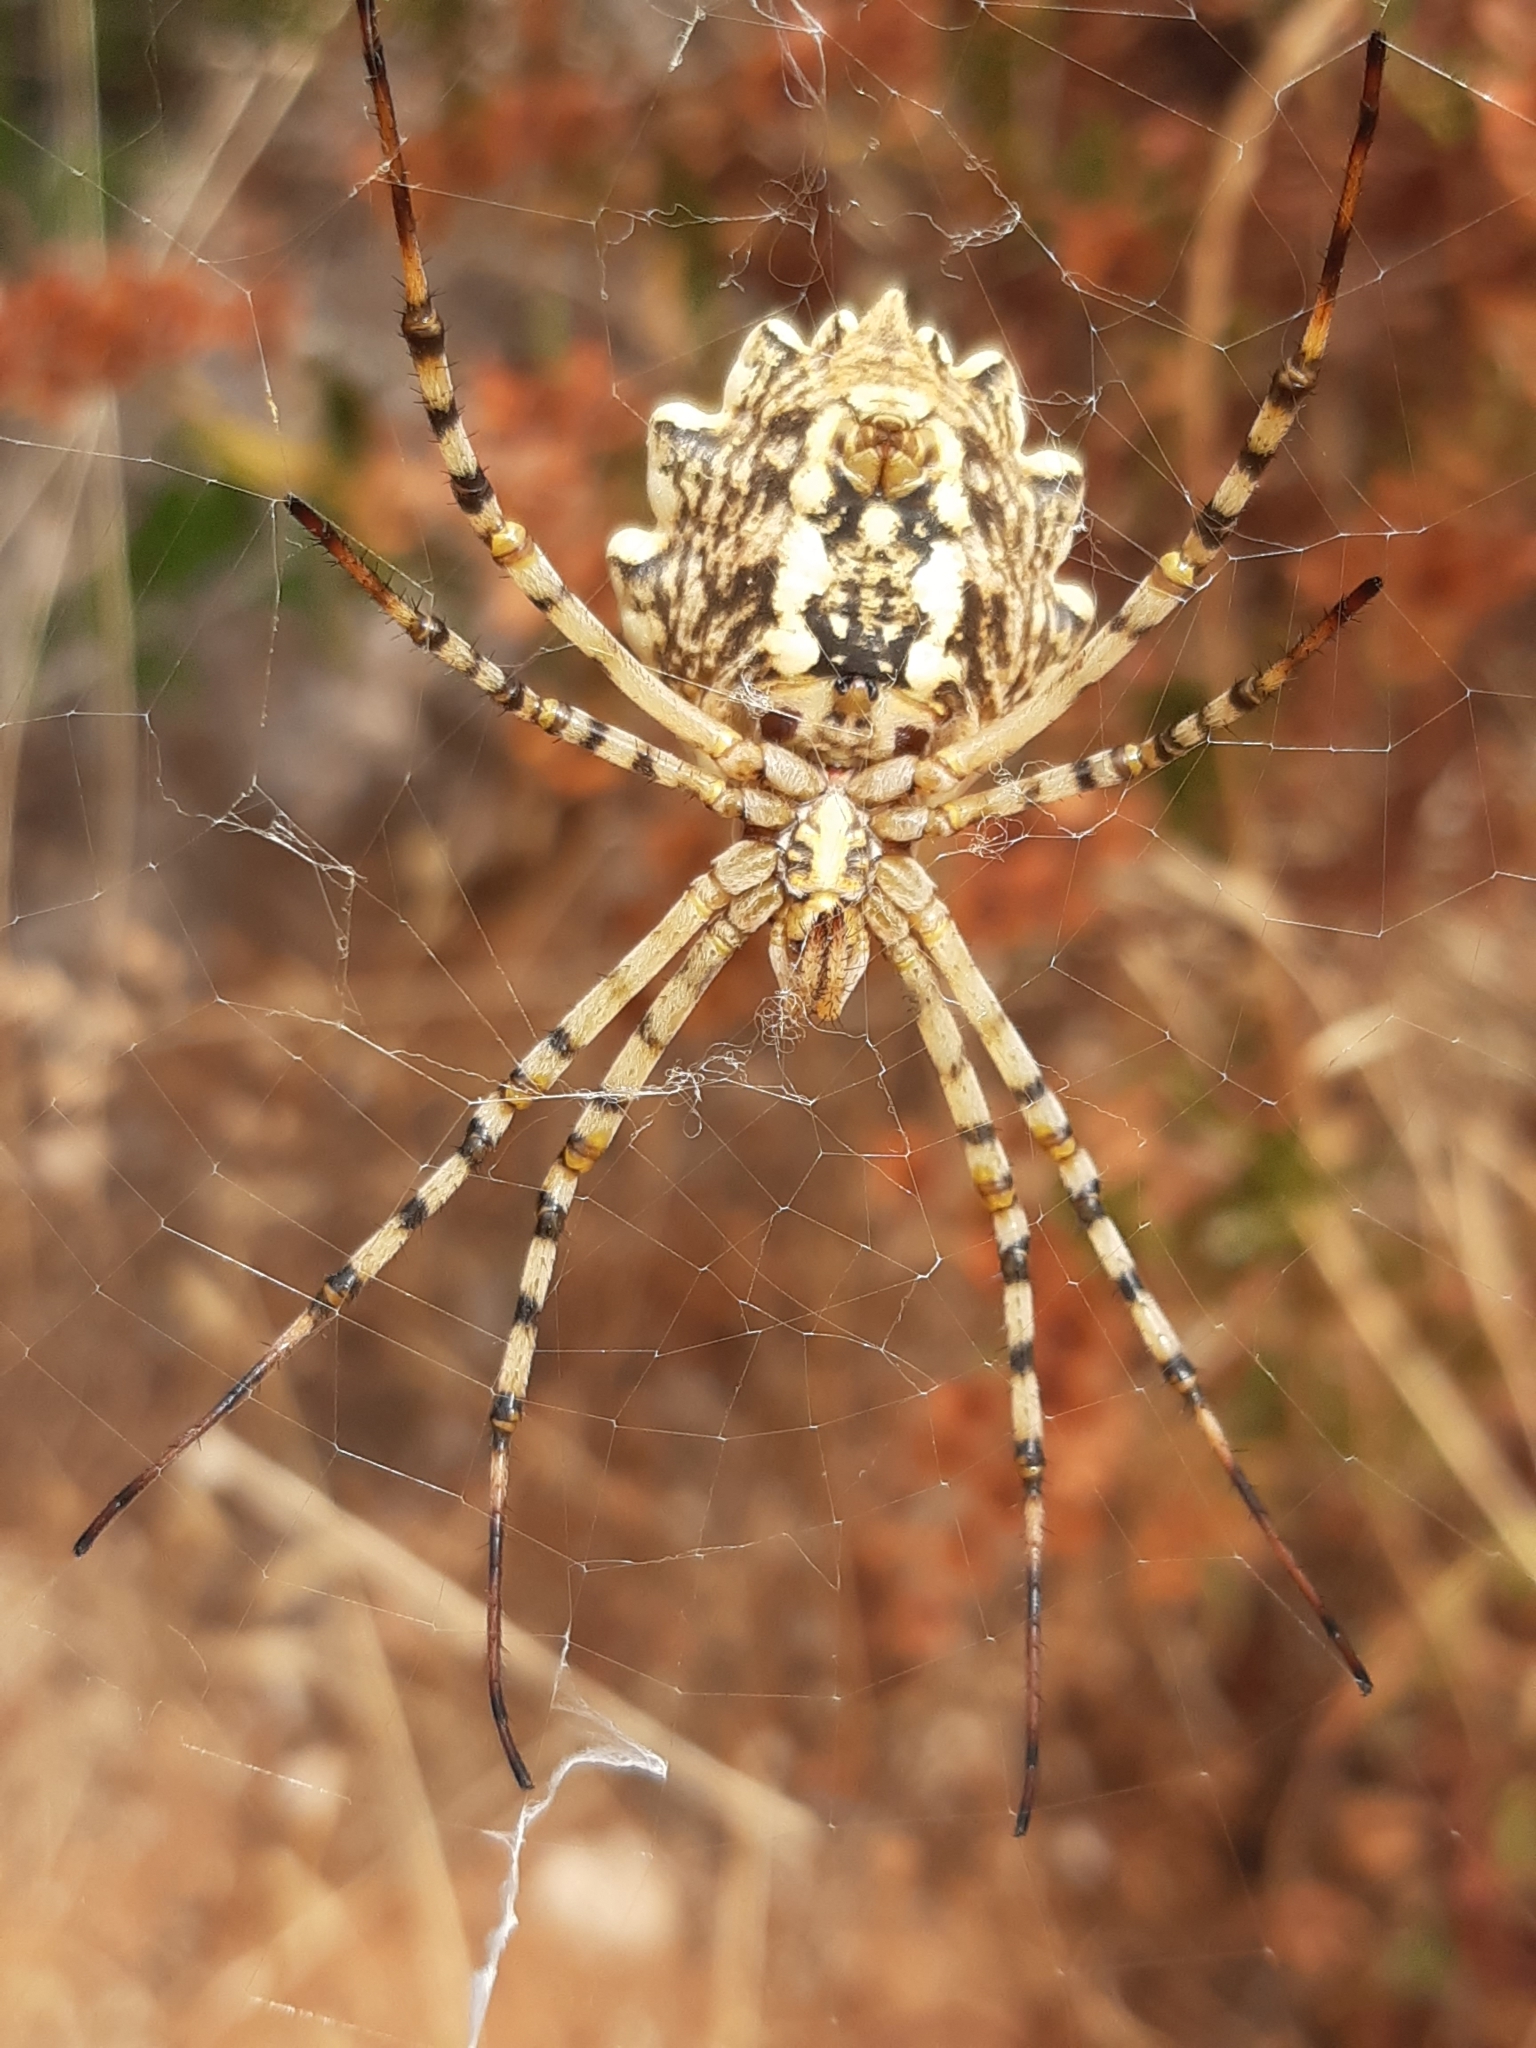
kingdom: Animalia
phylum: Arthropoda
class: Arachnida
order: Araneae
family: Araneidae
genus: Argiope
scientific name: Argiope lobata
